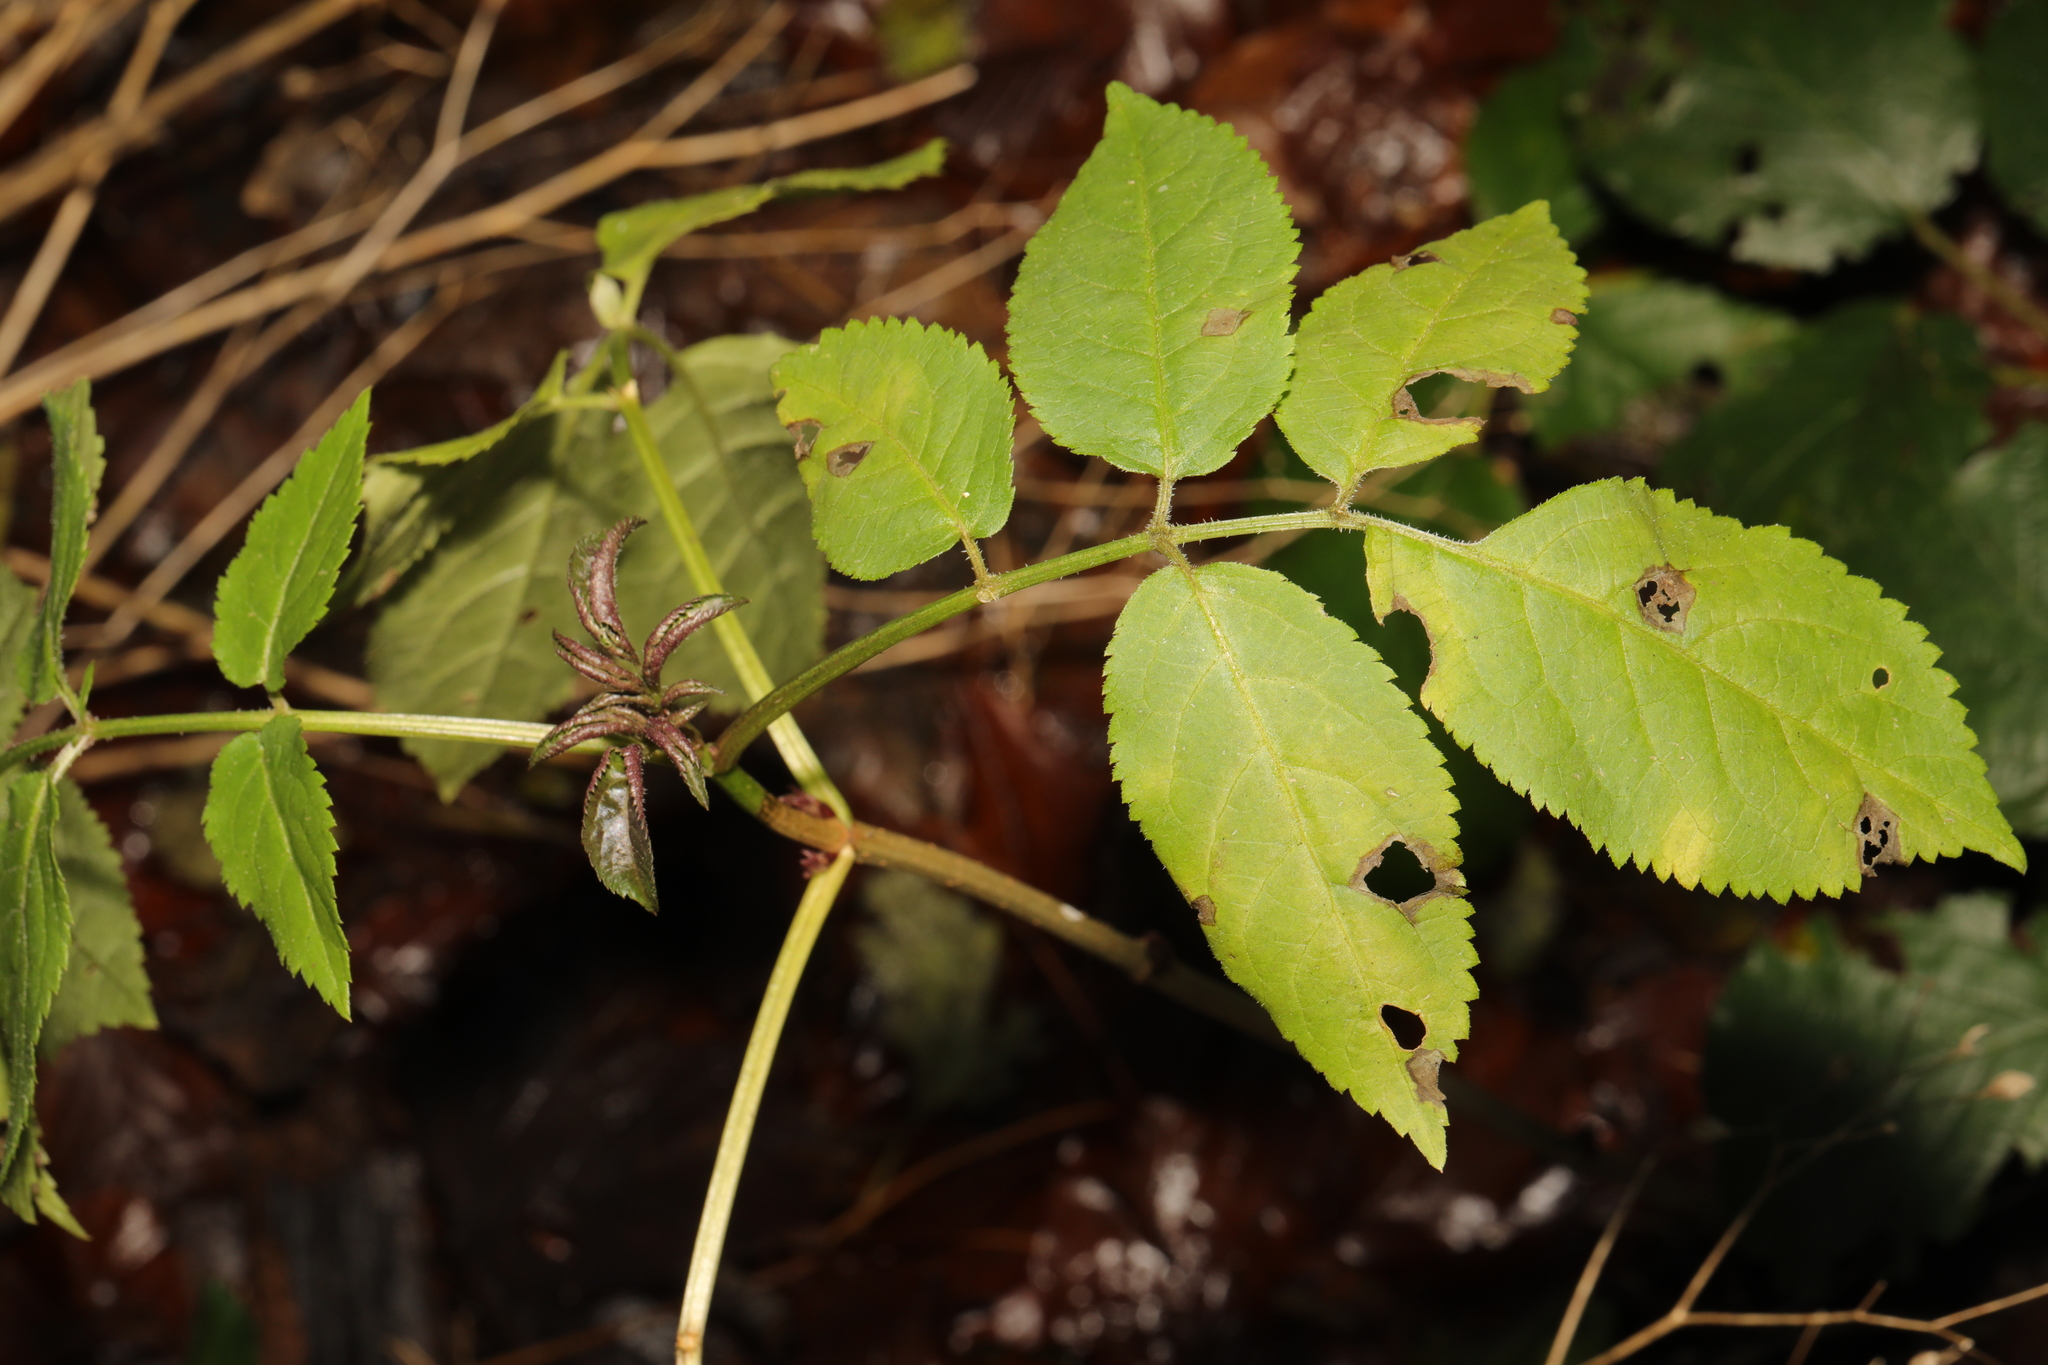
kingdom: Plantae
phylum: Tracheophyta
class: Magnoliopsida
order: Dipsacales
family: Viburnaceae
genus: Sambucus
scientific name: Sambucus nigra
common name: Elder
